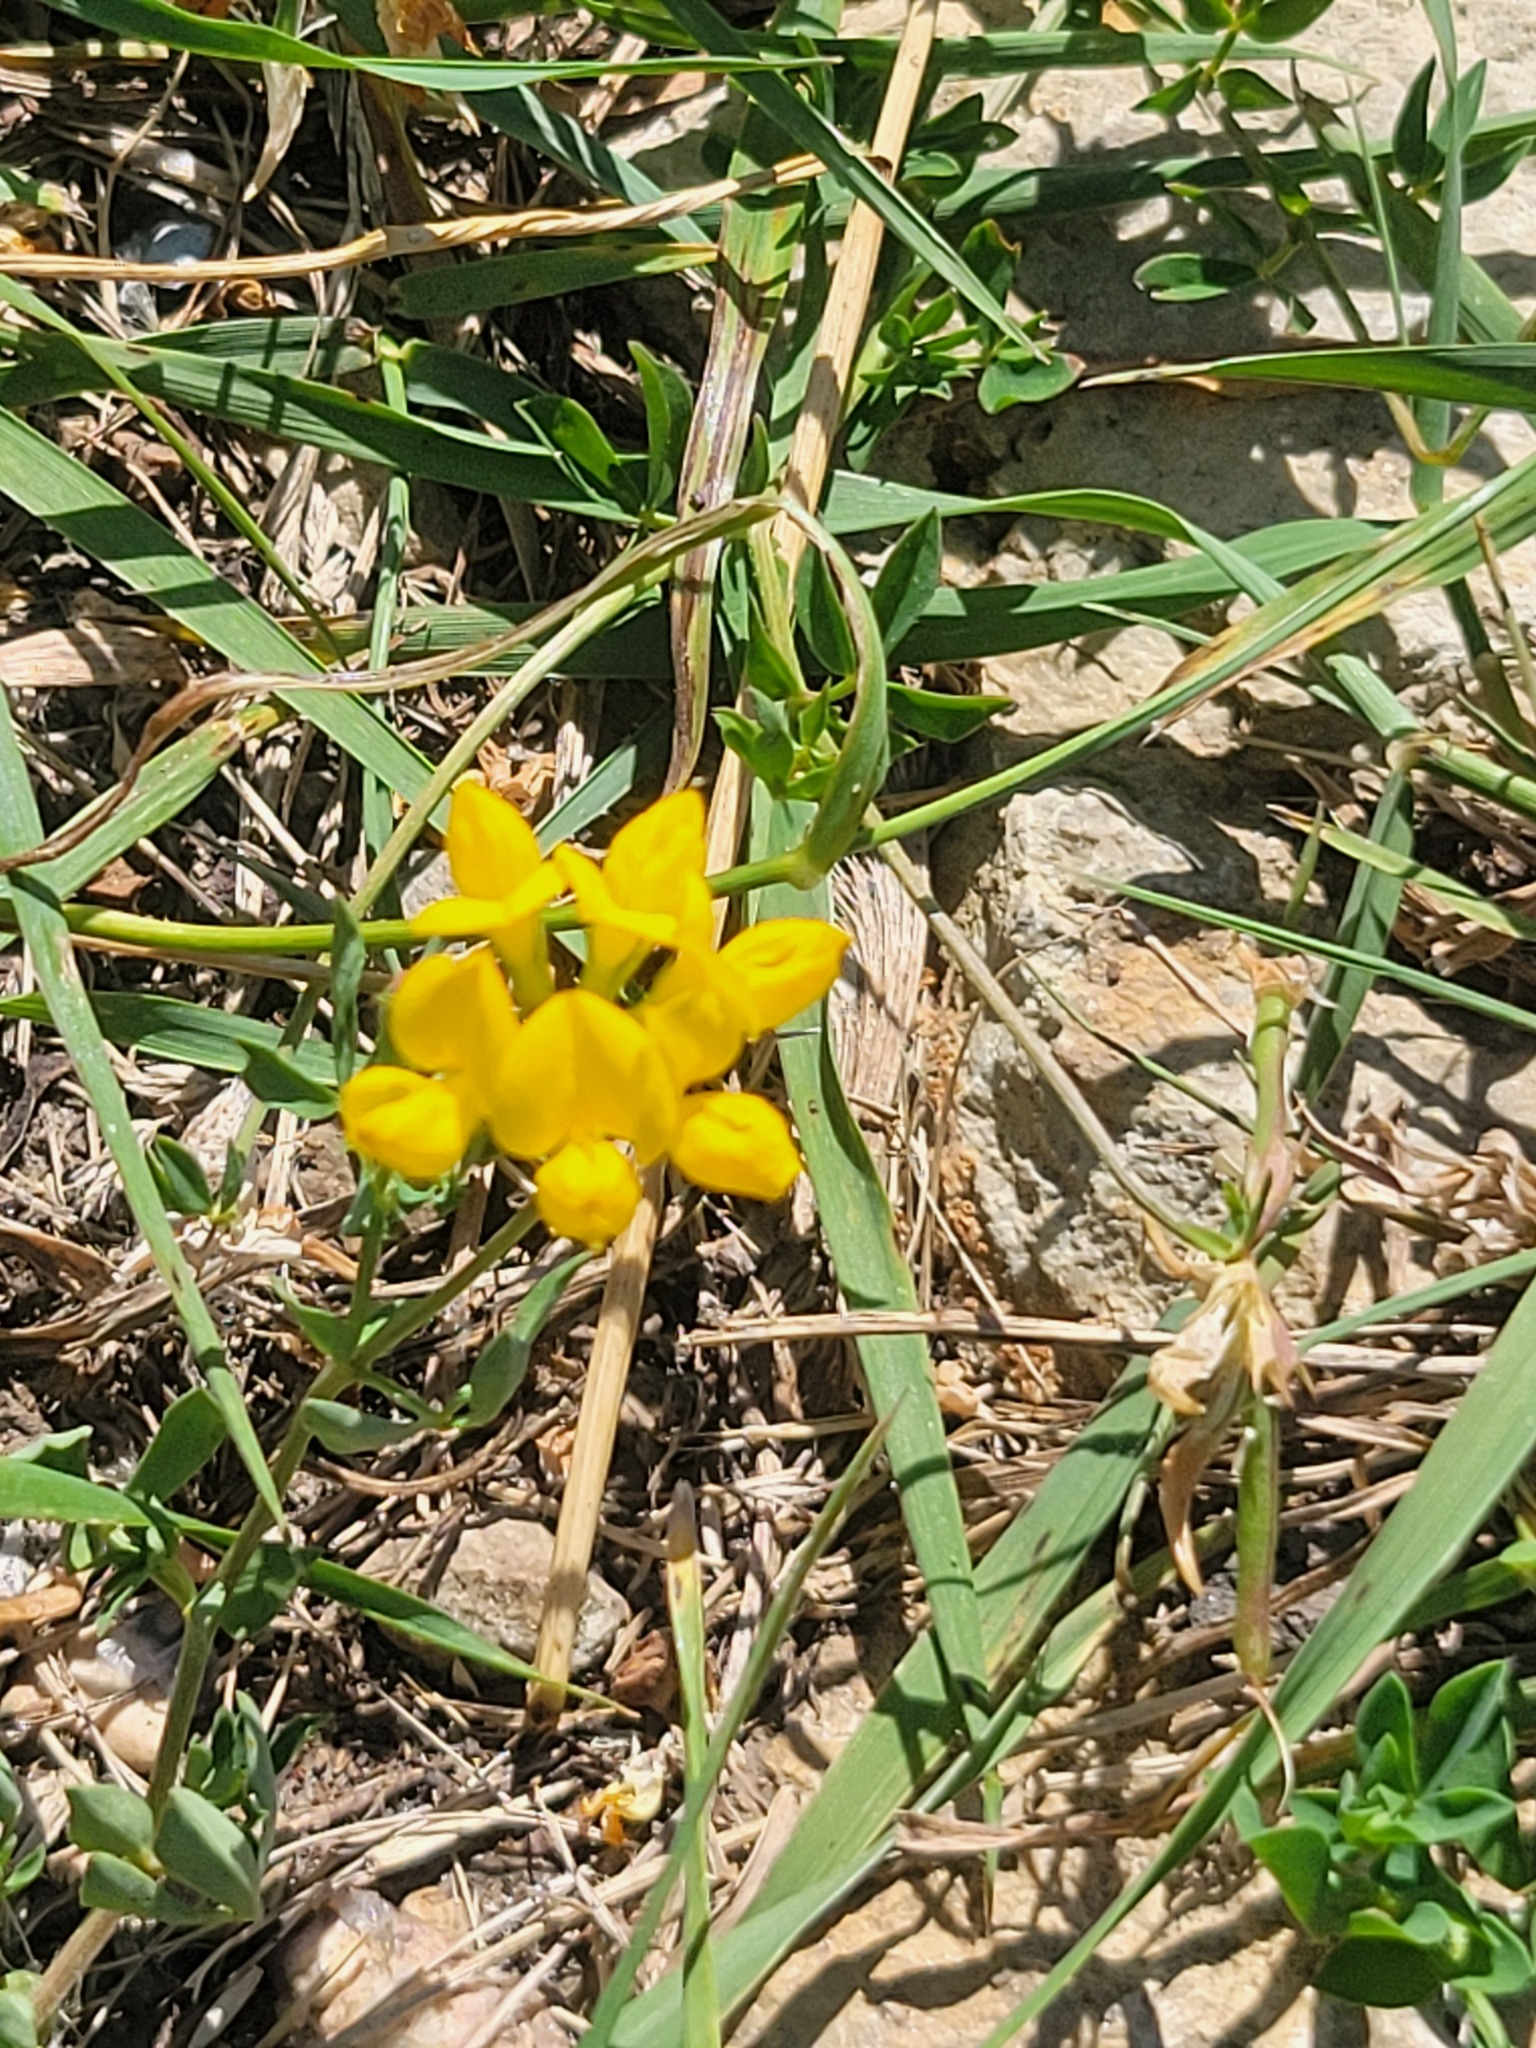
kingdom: Plantae
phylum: Tracheophyta
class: Magnoliopsida
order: Fabales
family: Fabaceae
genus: Lotus
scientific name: Lotus corniculatus
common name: Common bird's-foot-trefoil
